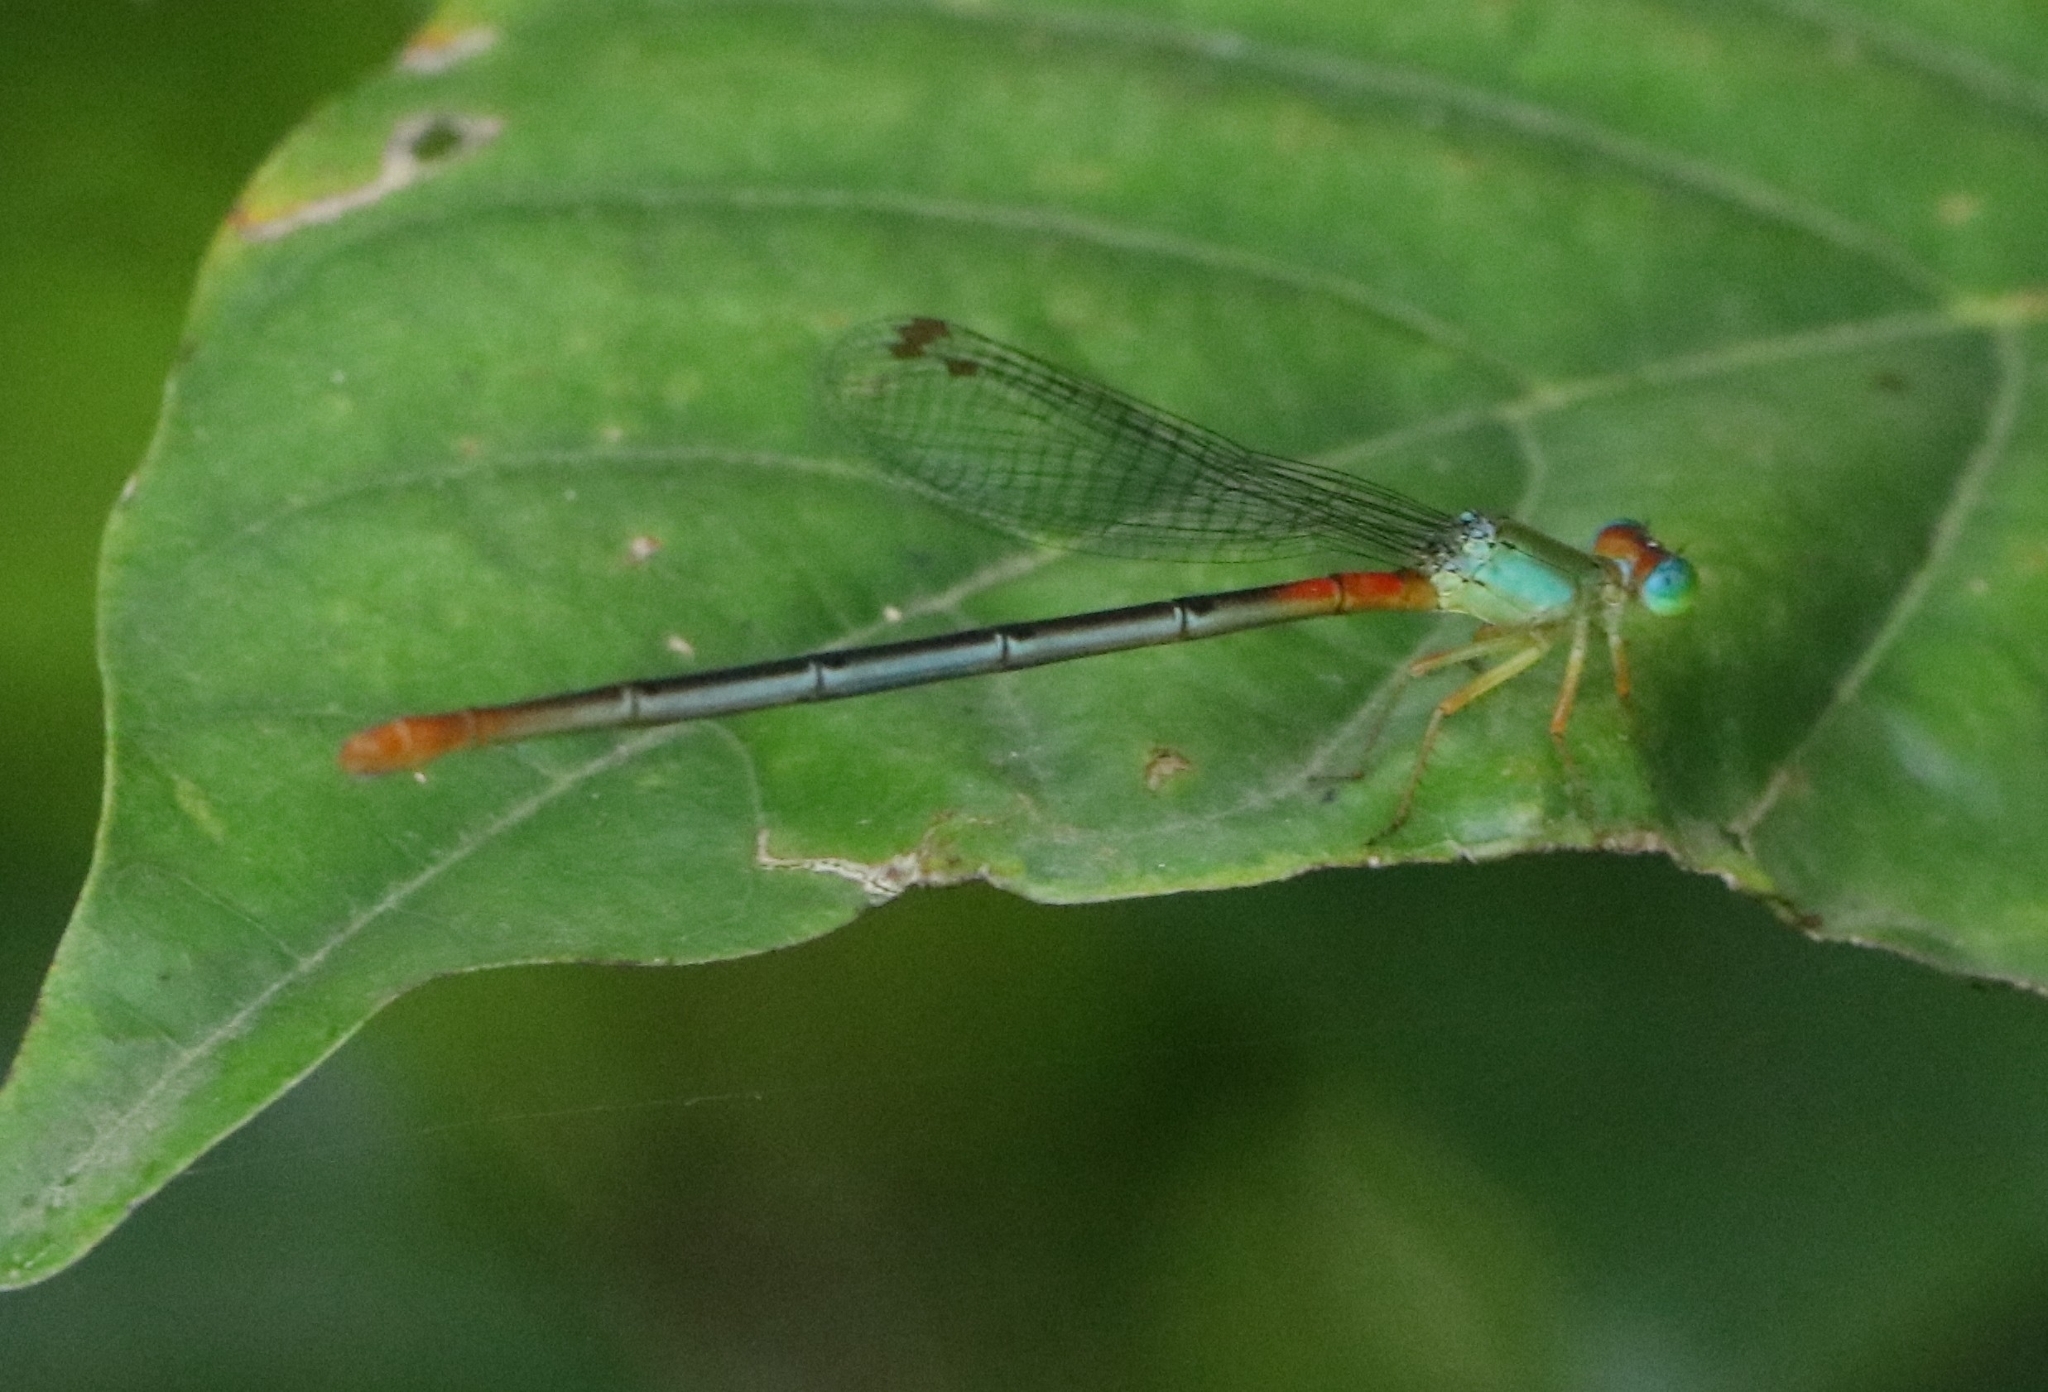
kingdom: Animalia
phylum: Arthropoda
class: Insecta
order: Odonata
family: Coenagrionidae
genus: Ceriagrion
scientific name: Ceriagrion cerinorubellum
